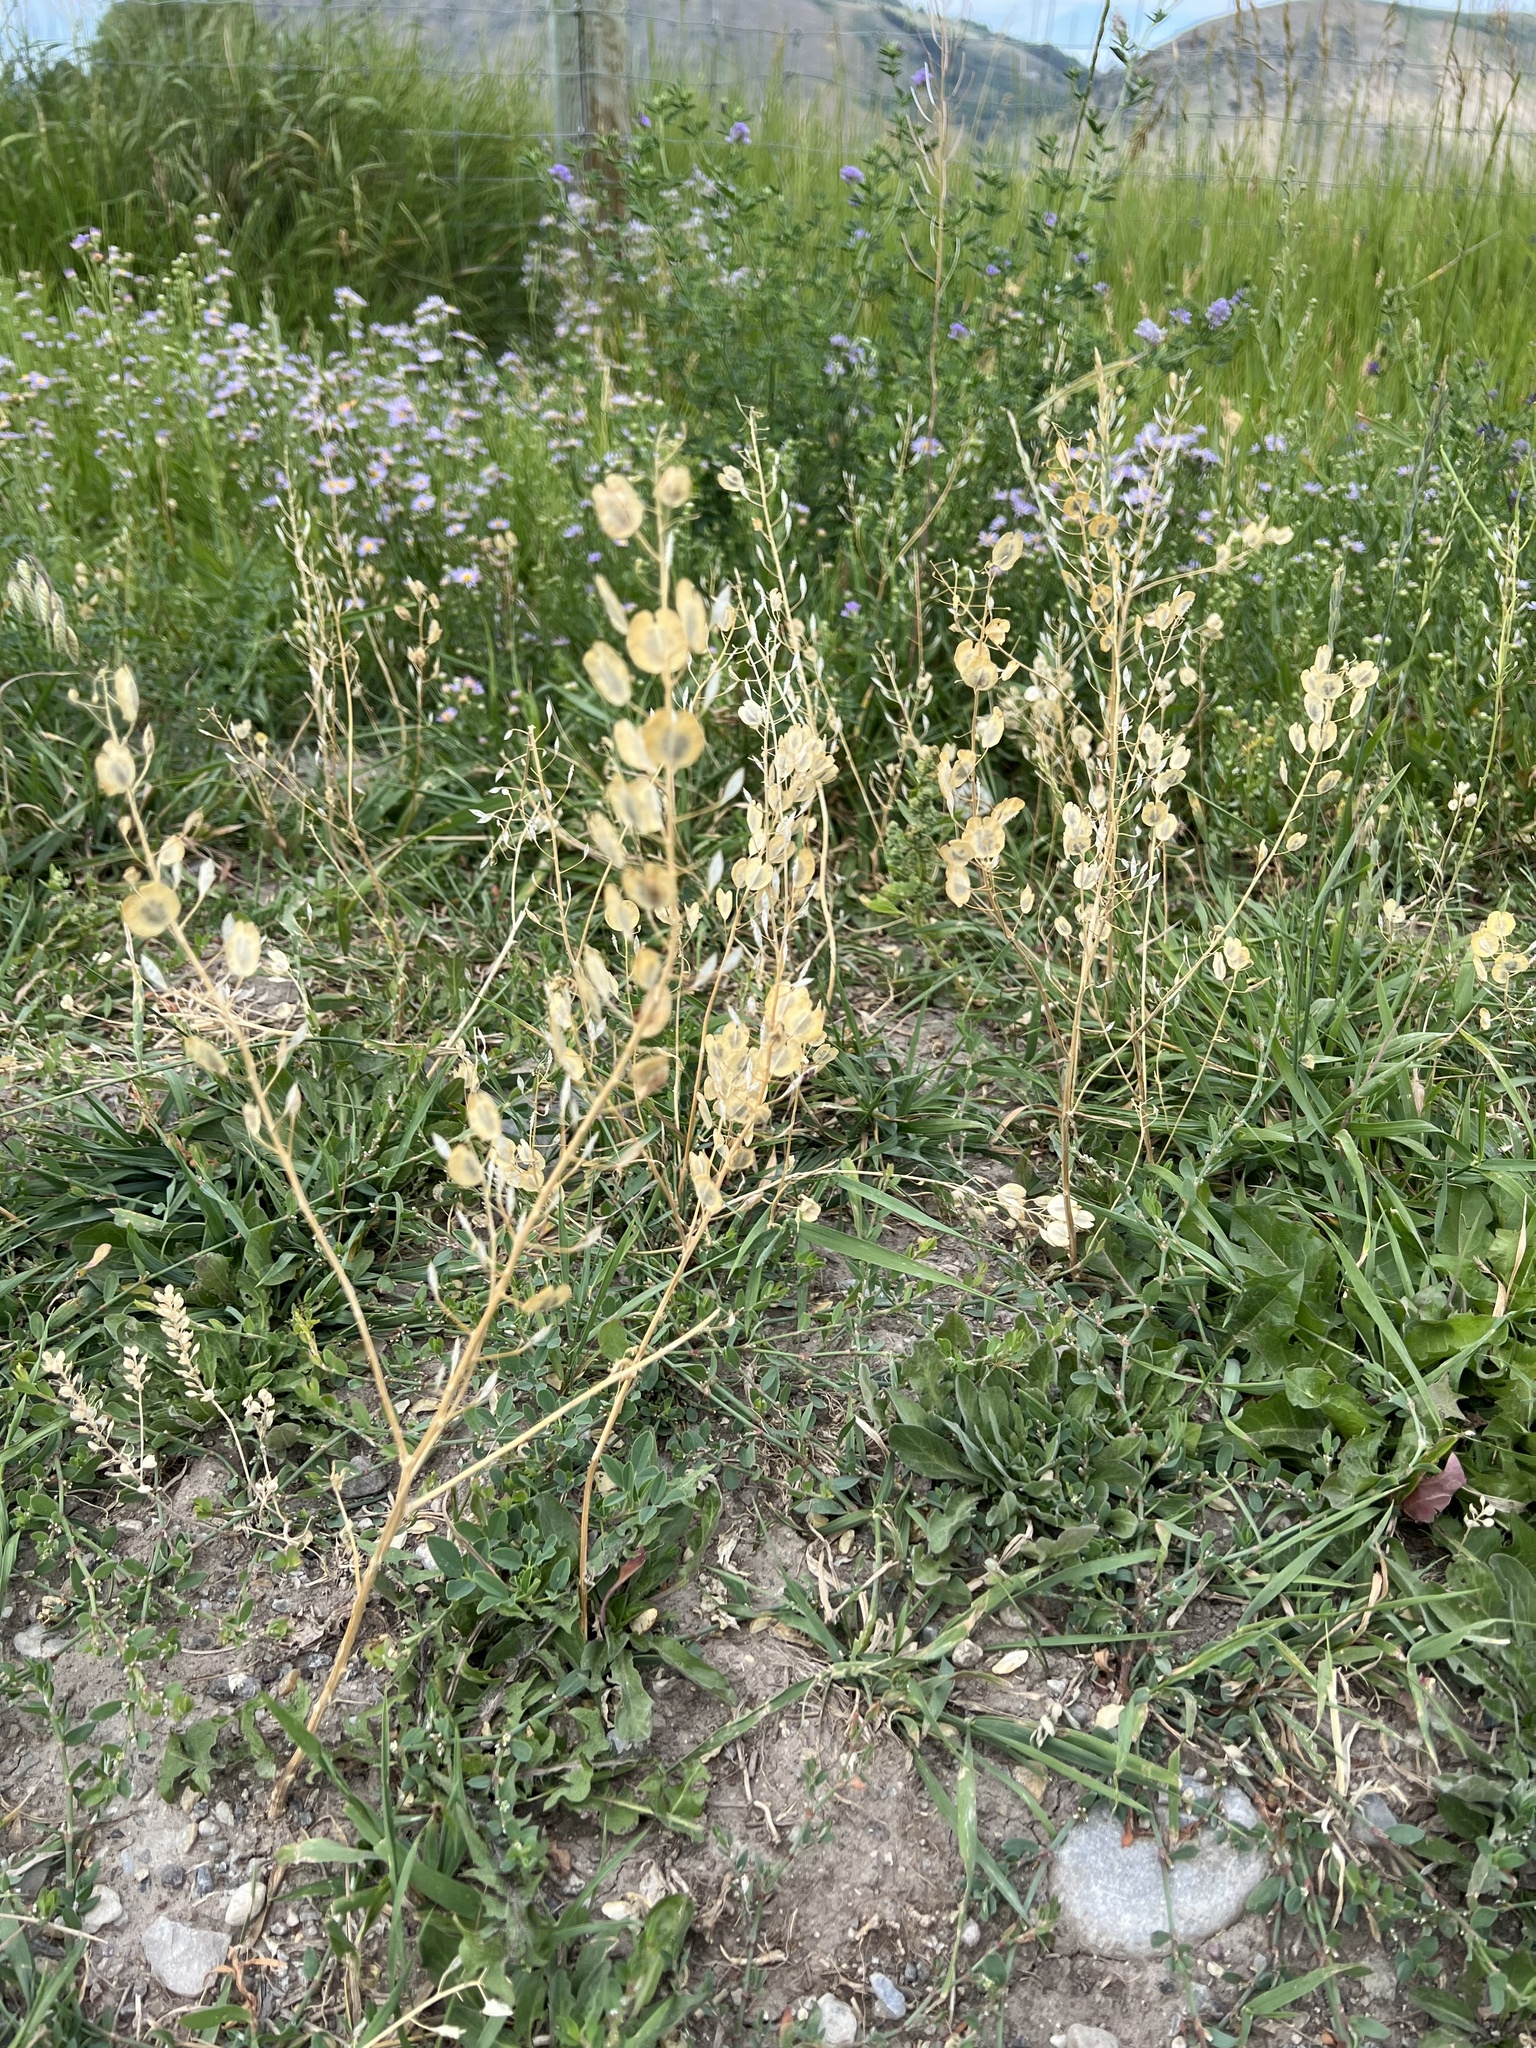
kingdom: Plantae
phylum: Tracheophyta
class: Magnoliopsida
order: Brassicales
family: Brassicaceae
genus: Thlaspi
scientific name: Thlaspi arvense
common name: Field pennycress
